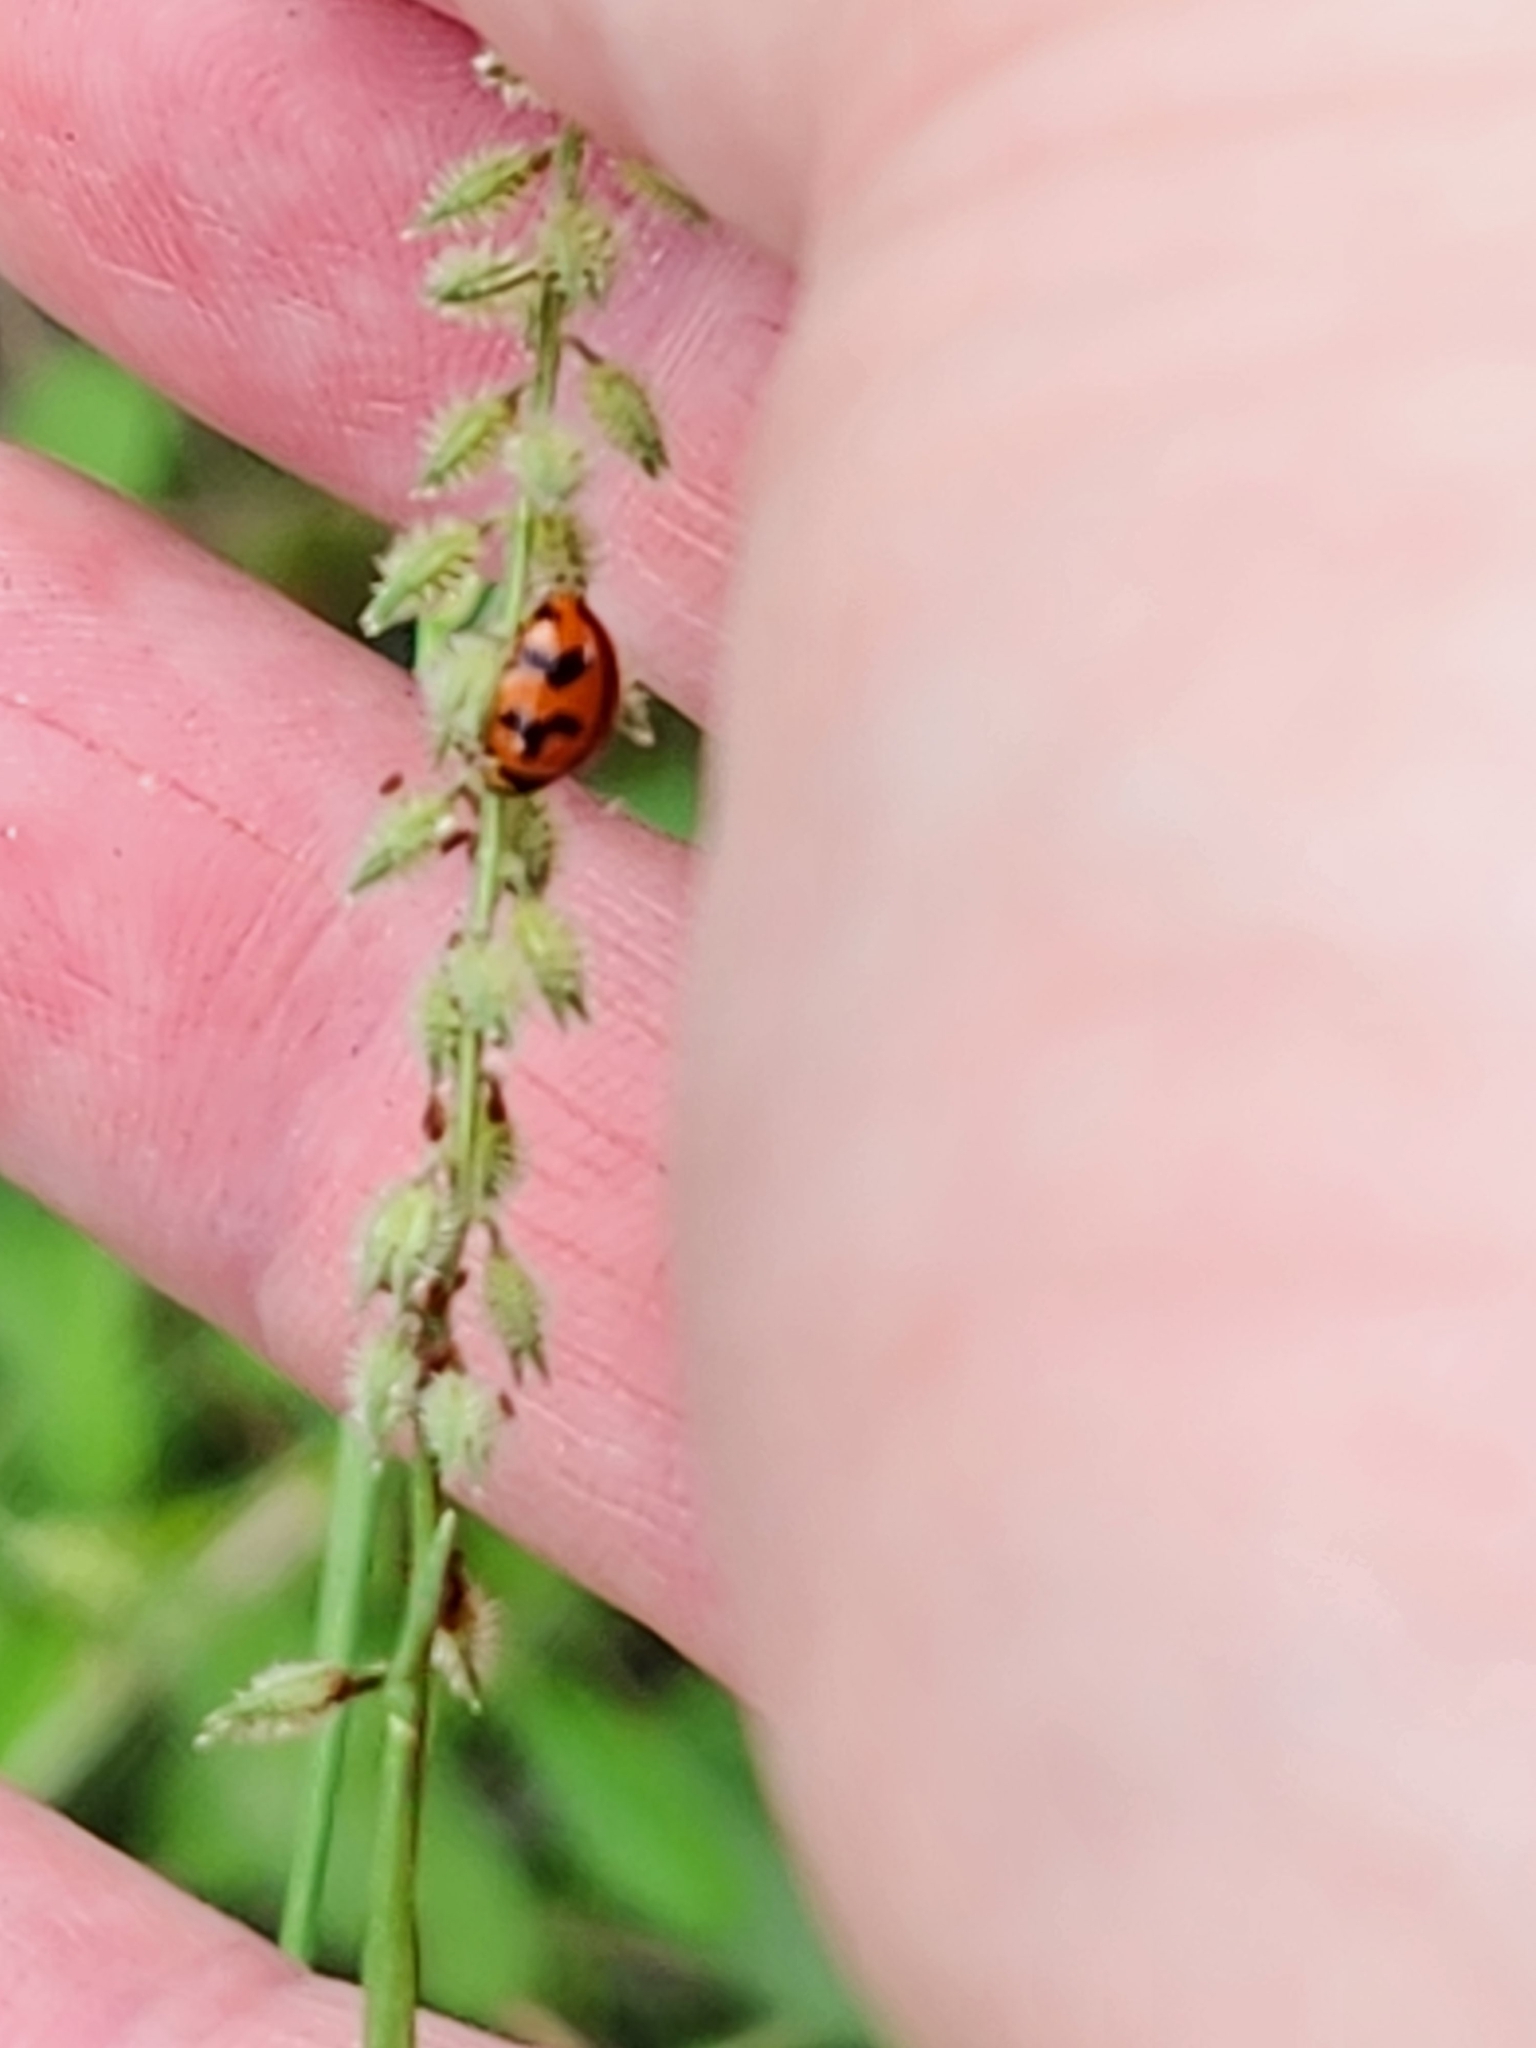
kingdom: Animalia
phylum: Arthropoda
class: Insecta
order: Coleoptera
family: Coccinellidae
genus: Coccinella
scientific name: Coccinella transversalis
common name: Transverse lady beetle
